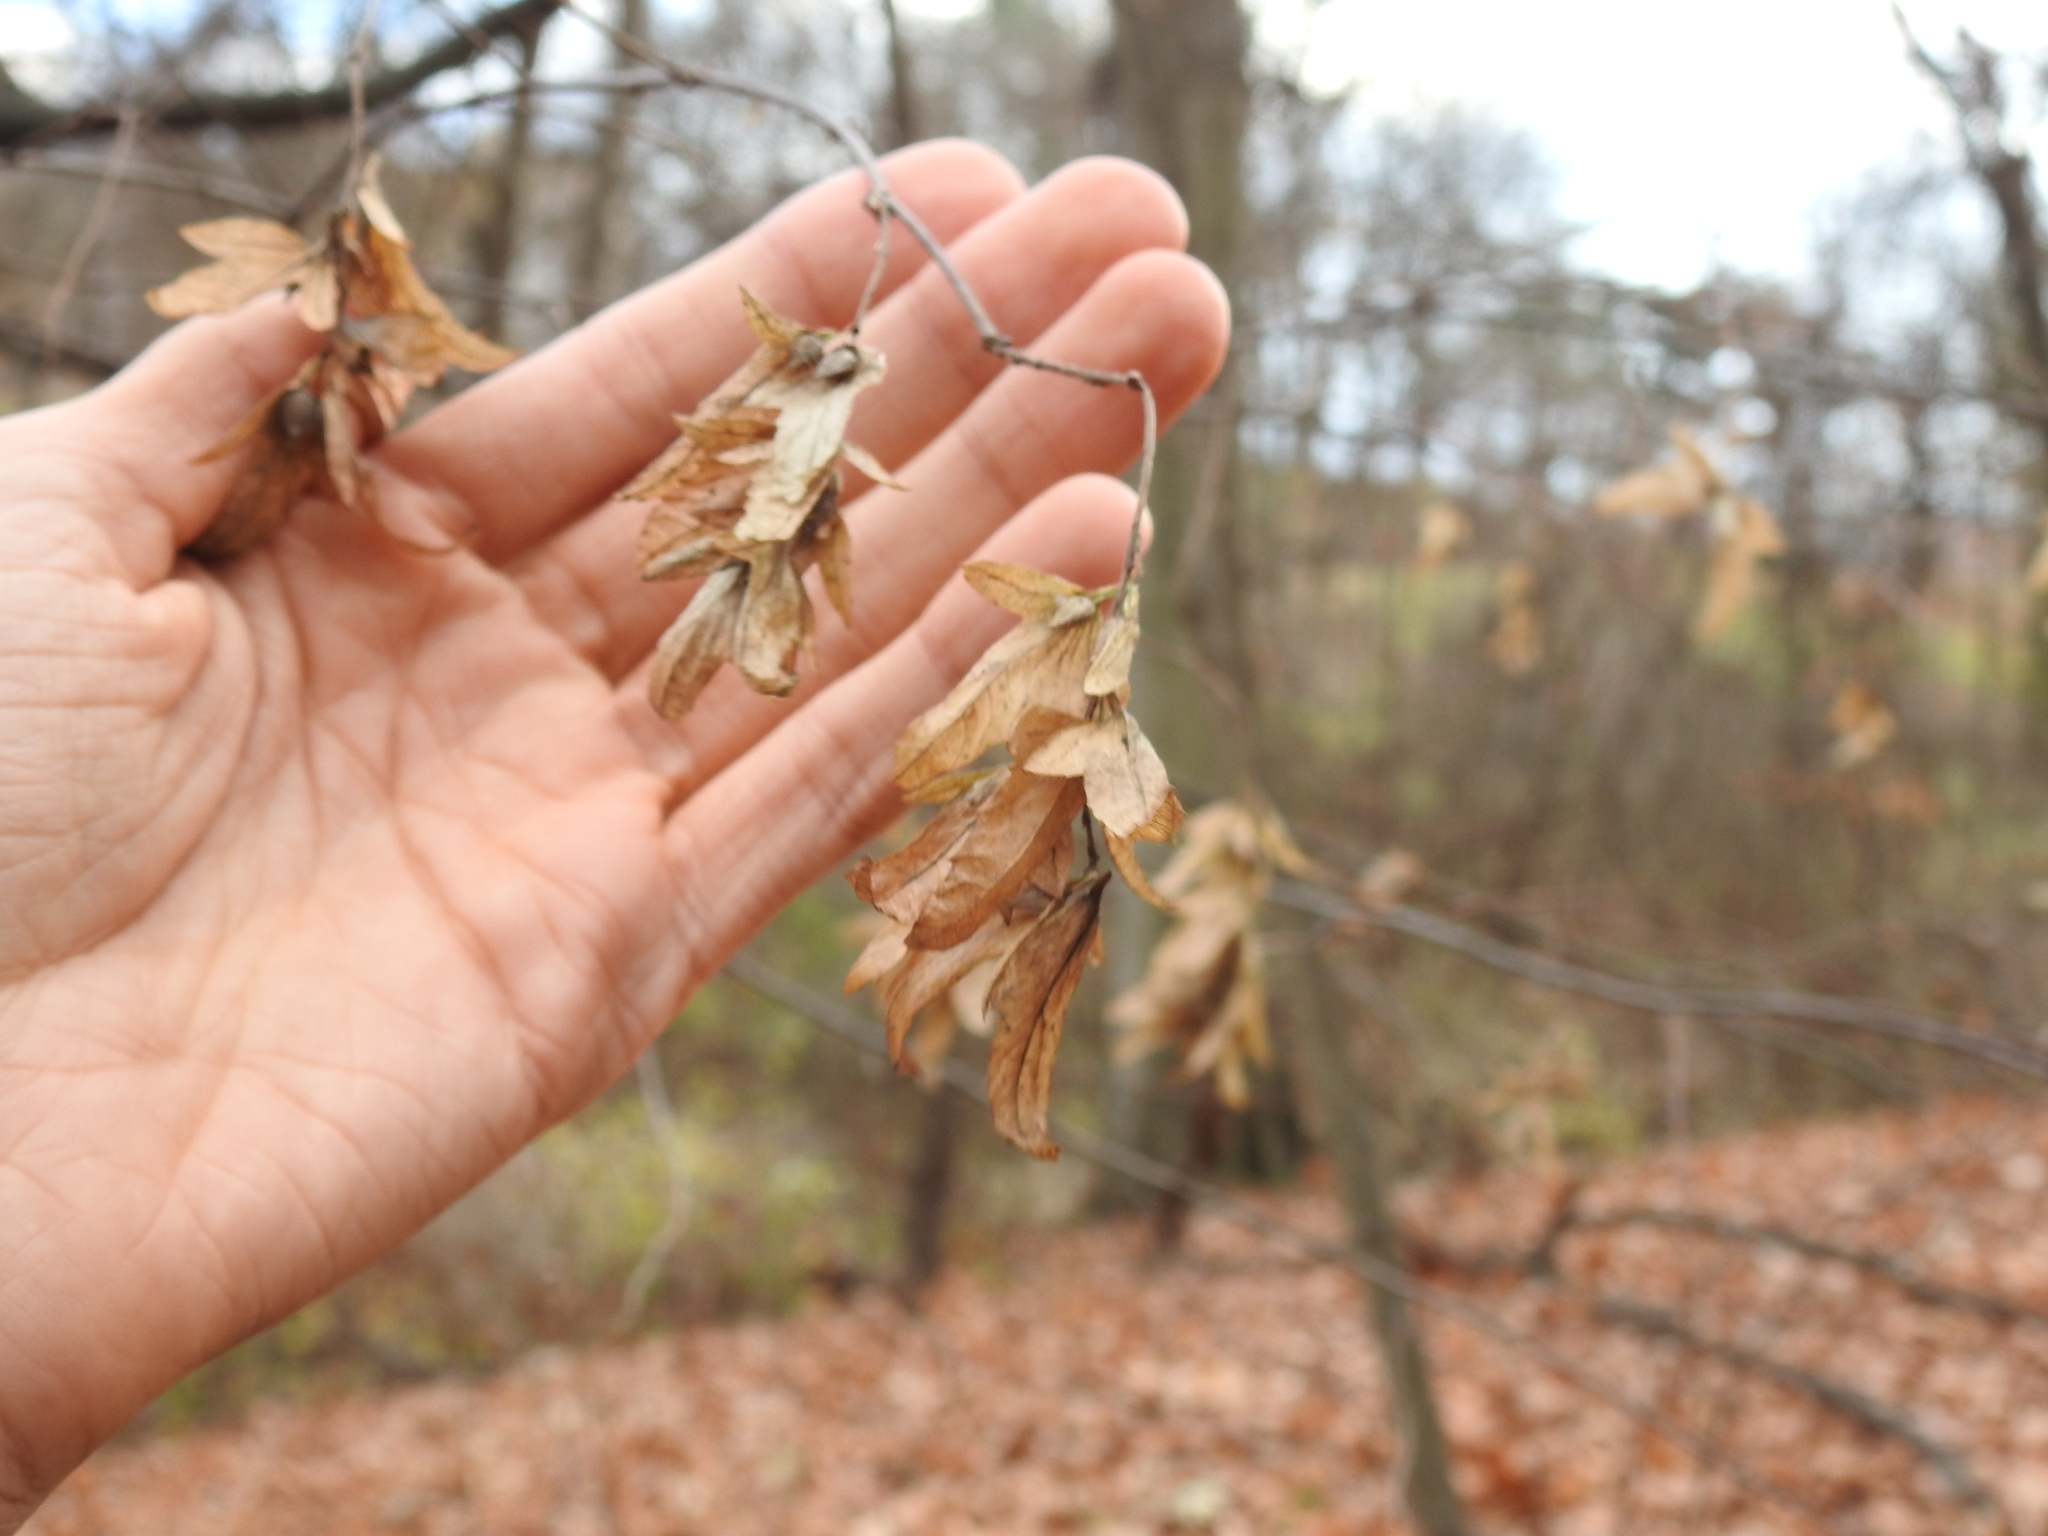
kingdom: Plantae
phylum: Tracheophyta
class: Magnoliopsida
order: Fagales
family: Betulaceae
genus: Carpinus
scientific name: Carpinus caroliniana
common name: American hornbeam
